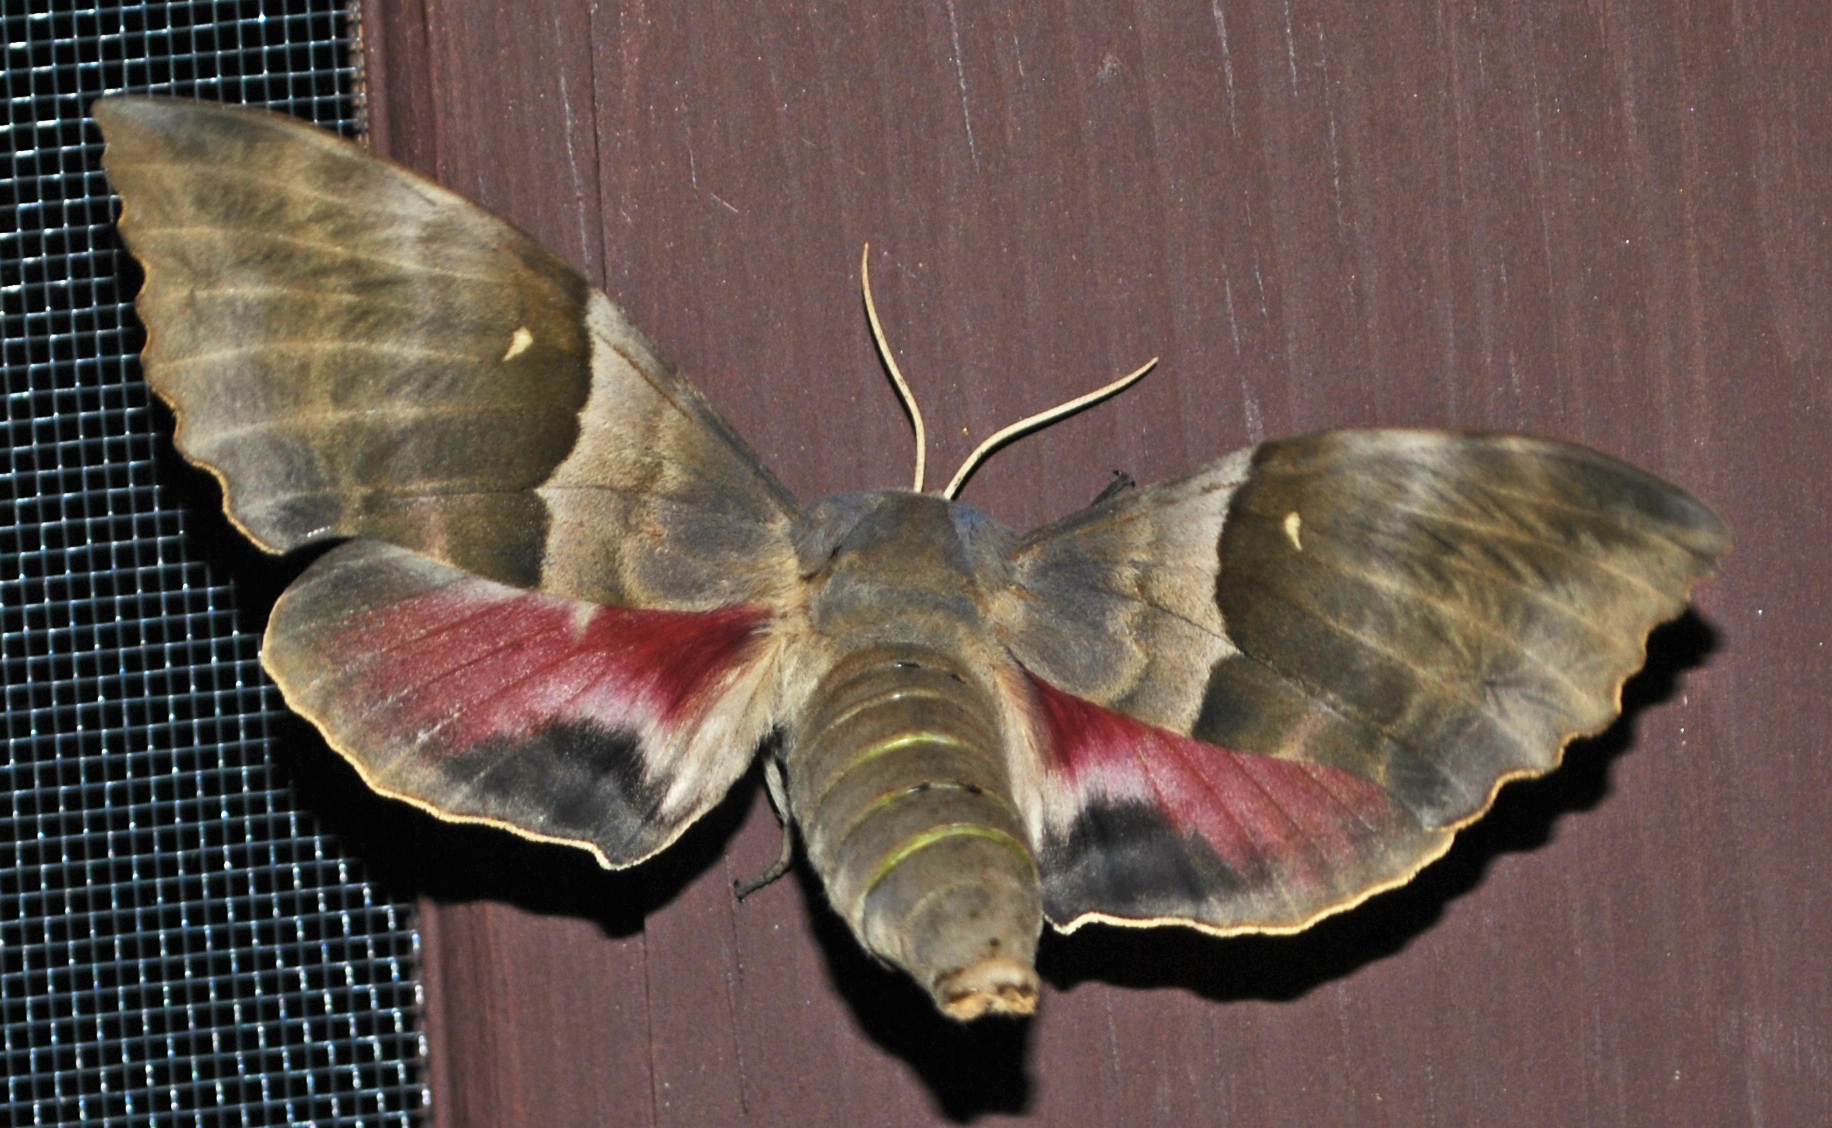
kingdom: Animalia
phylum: Arthropoda
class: Insecta
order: Lepidoptera
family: Sphingidae
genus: Pachysphinx
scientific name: Pachysphinx modesta
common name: Big poplar sphinx
